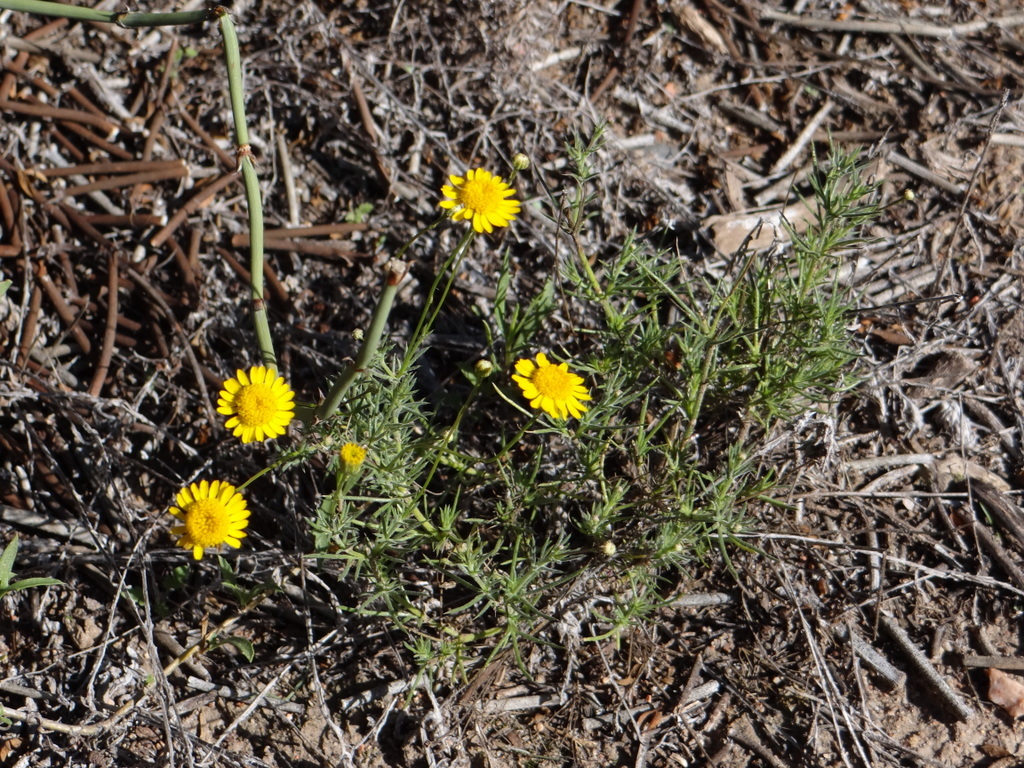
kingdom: Plantae
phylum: Tracheophyta
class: Magnoliopsida
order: Asterales
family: Asteraceae
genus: Thymophylla
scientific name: Thymophylla pentachaeta
